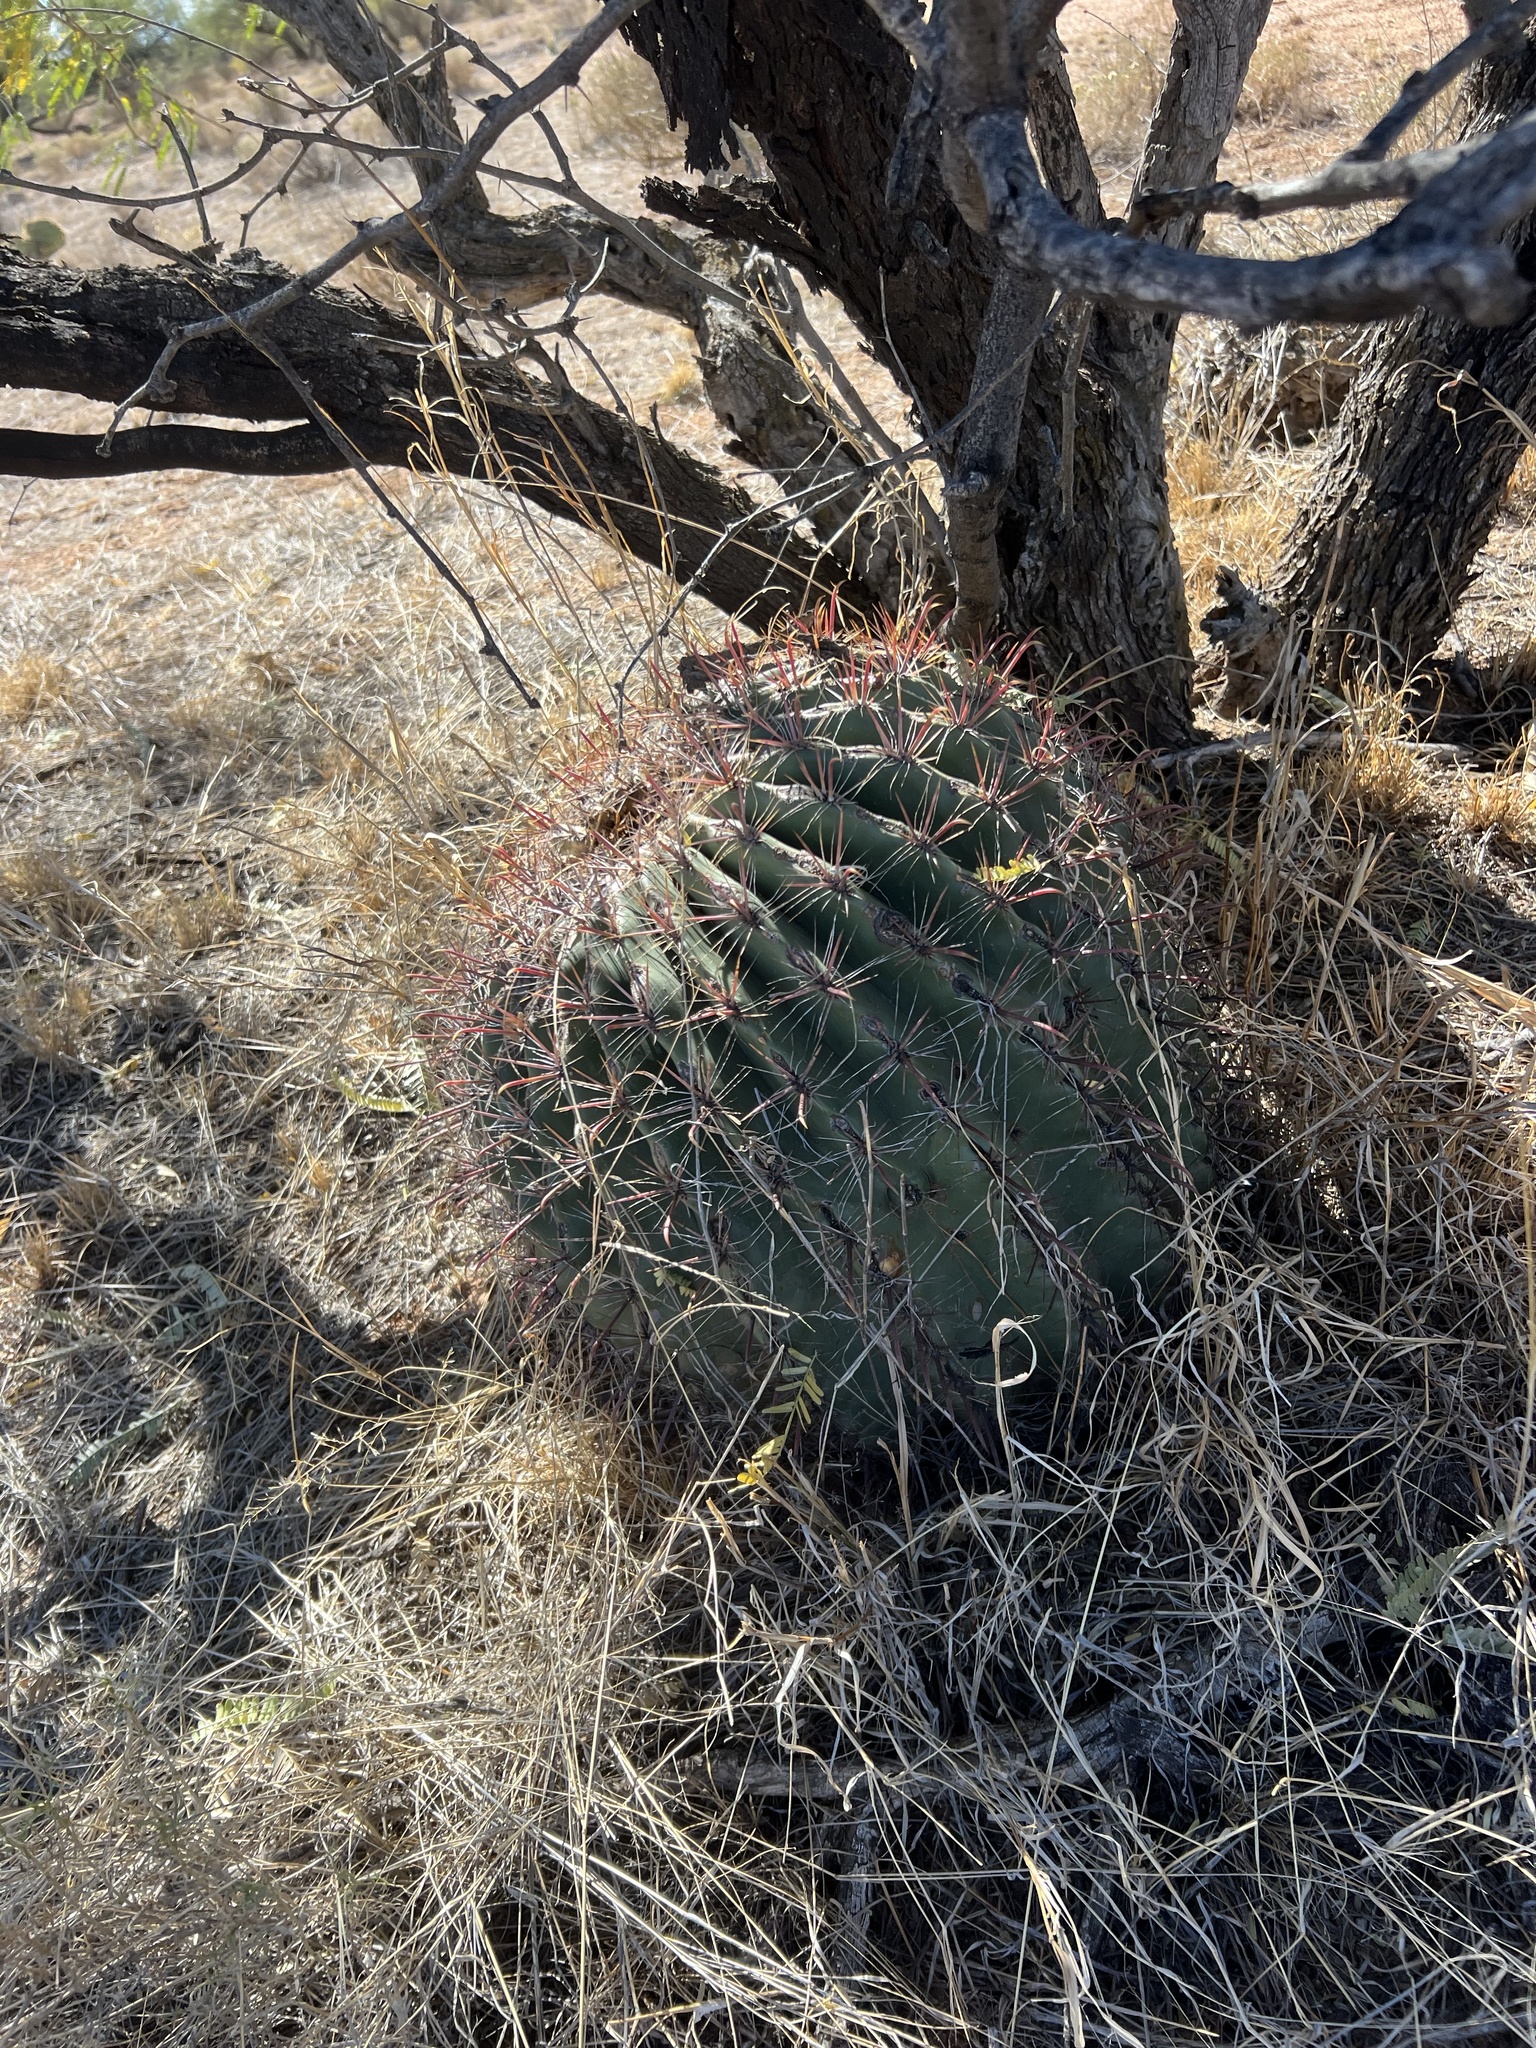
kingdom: Plantae
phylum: Tracheophyta
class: Magnoliopsida
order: Caryophyllales
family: Cactaceae
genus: Ferocactus
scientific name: Ferocactus wislizeni
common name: Candy barrel cactus
